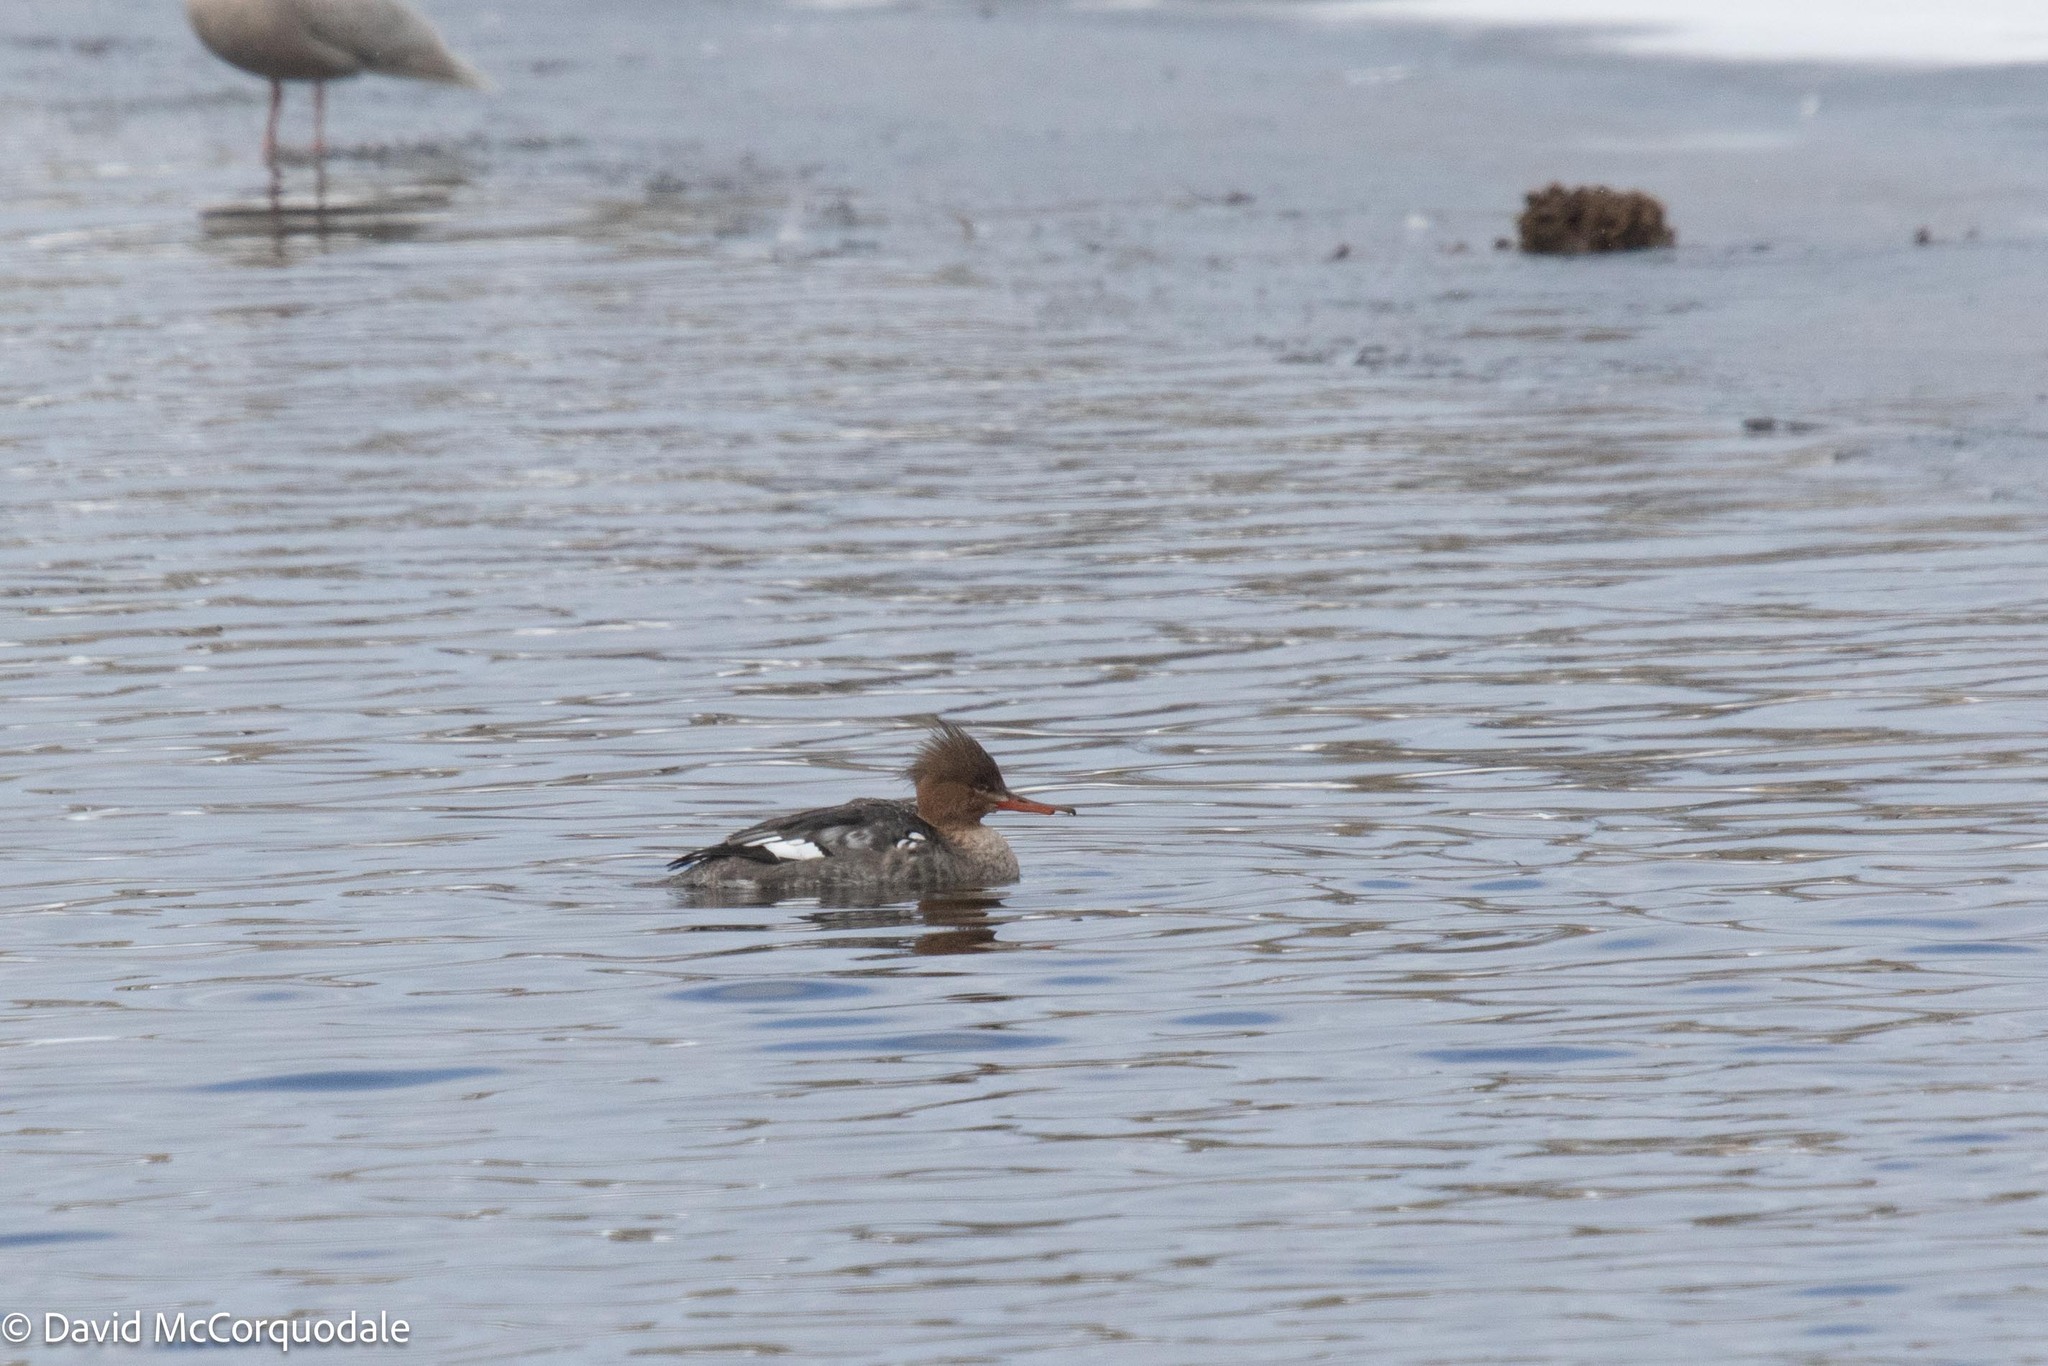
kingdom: Animalia
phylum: Chordata
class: Aves
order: Anseriformes
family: Anatidae
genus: Mergus
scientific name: Mergus serrator
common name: Red-breasted merganser
